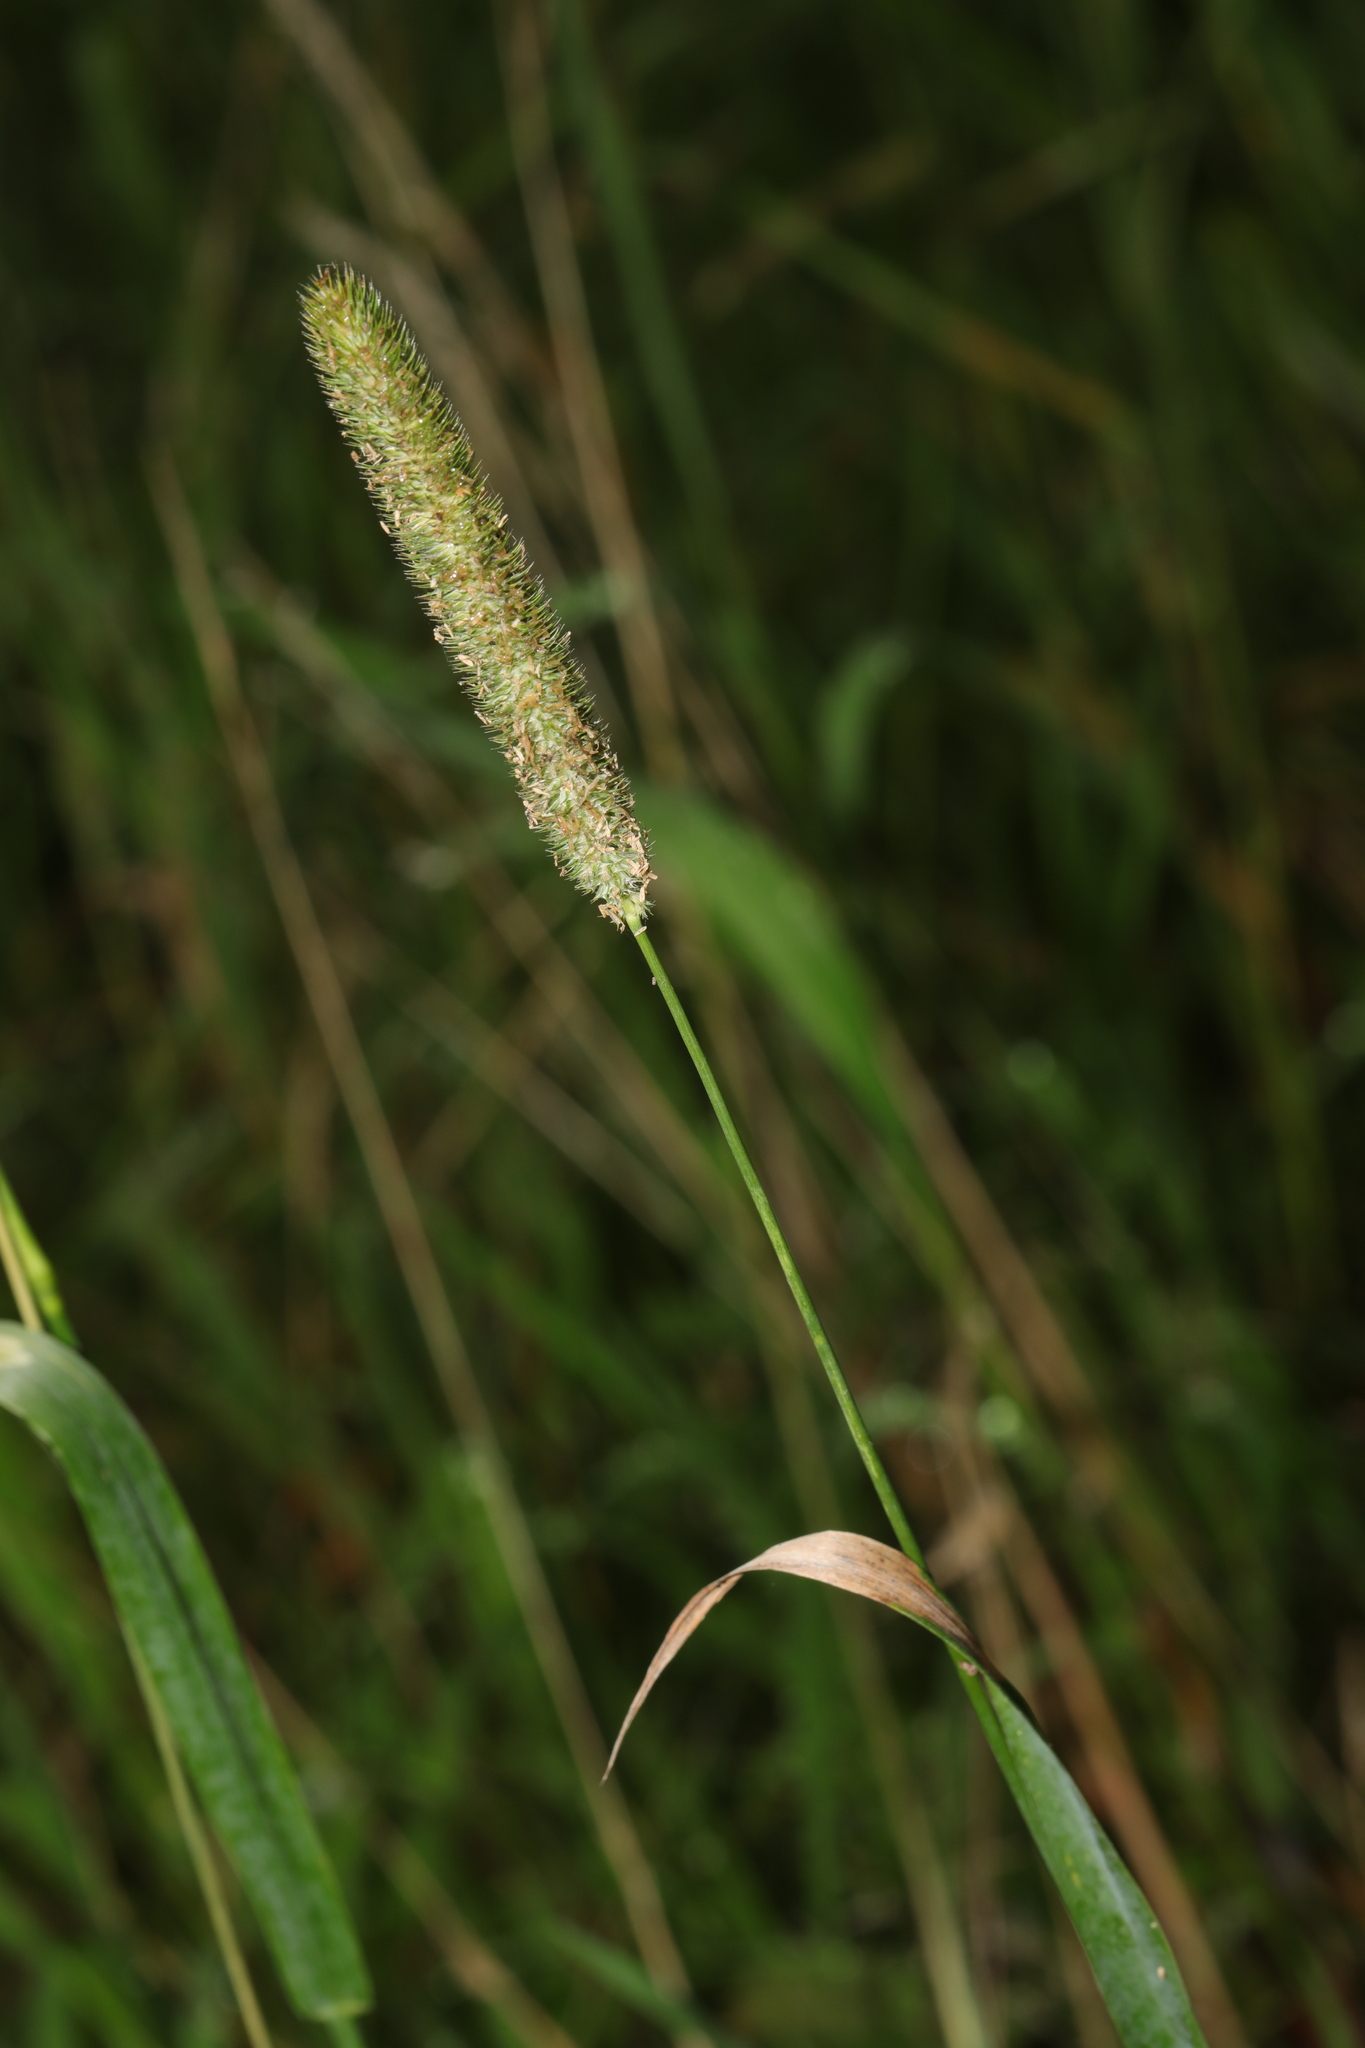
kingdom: Plantae
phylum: Tracheophyta
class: Liliopsida
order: Poales
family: Poaceae
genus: Phleum
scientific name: Phleum pratense
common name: Timothy grass
